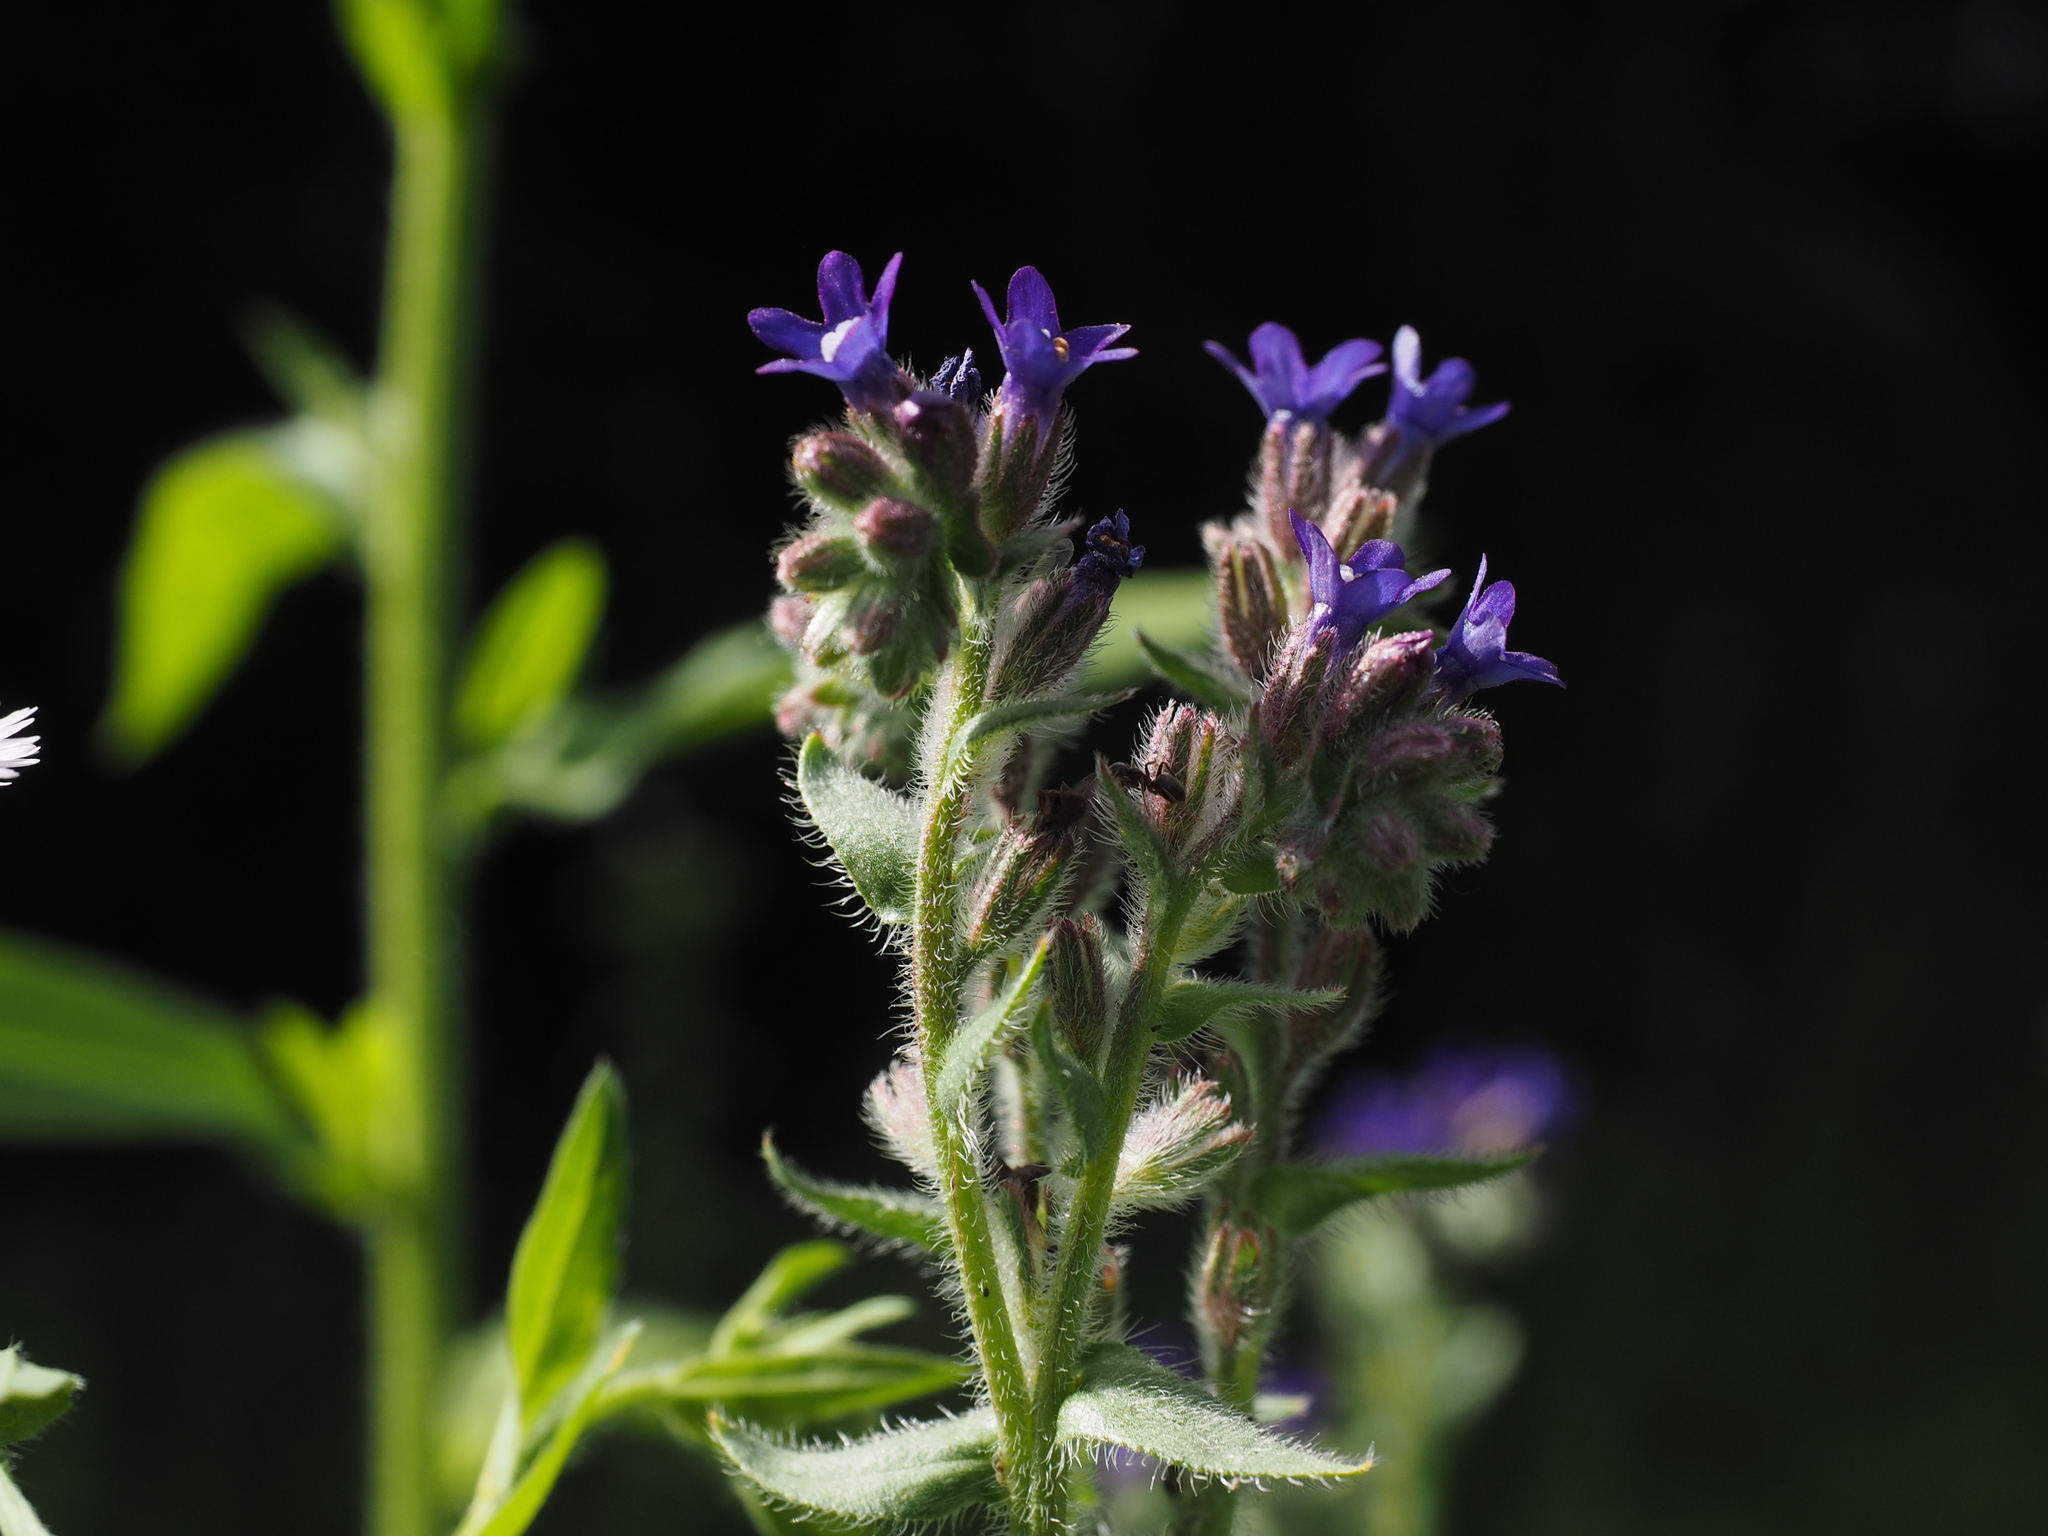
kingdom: Plantae
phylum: Tracheophyta
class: Magnoliopsida
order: Boraginales
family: Boraginaceae
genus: Anchusa
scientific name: Anchusa officinalis
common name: Alkanet
